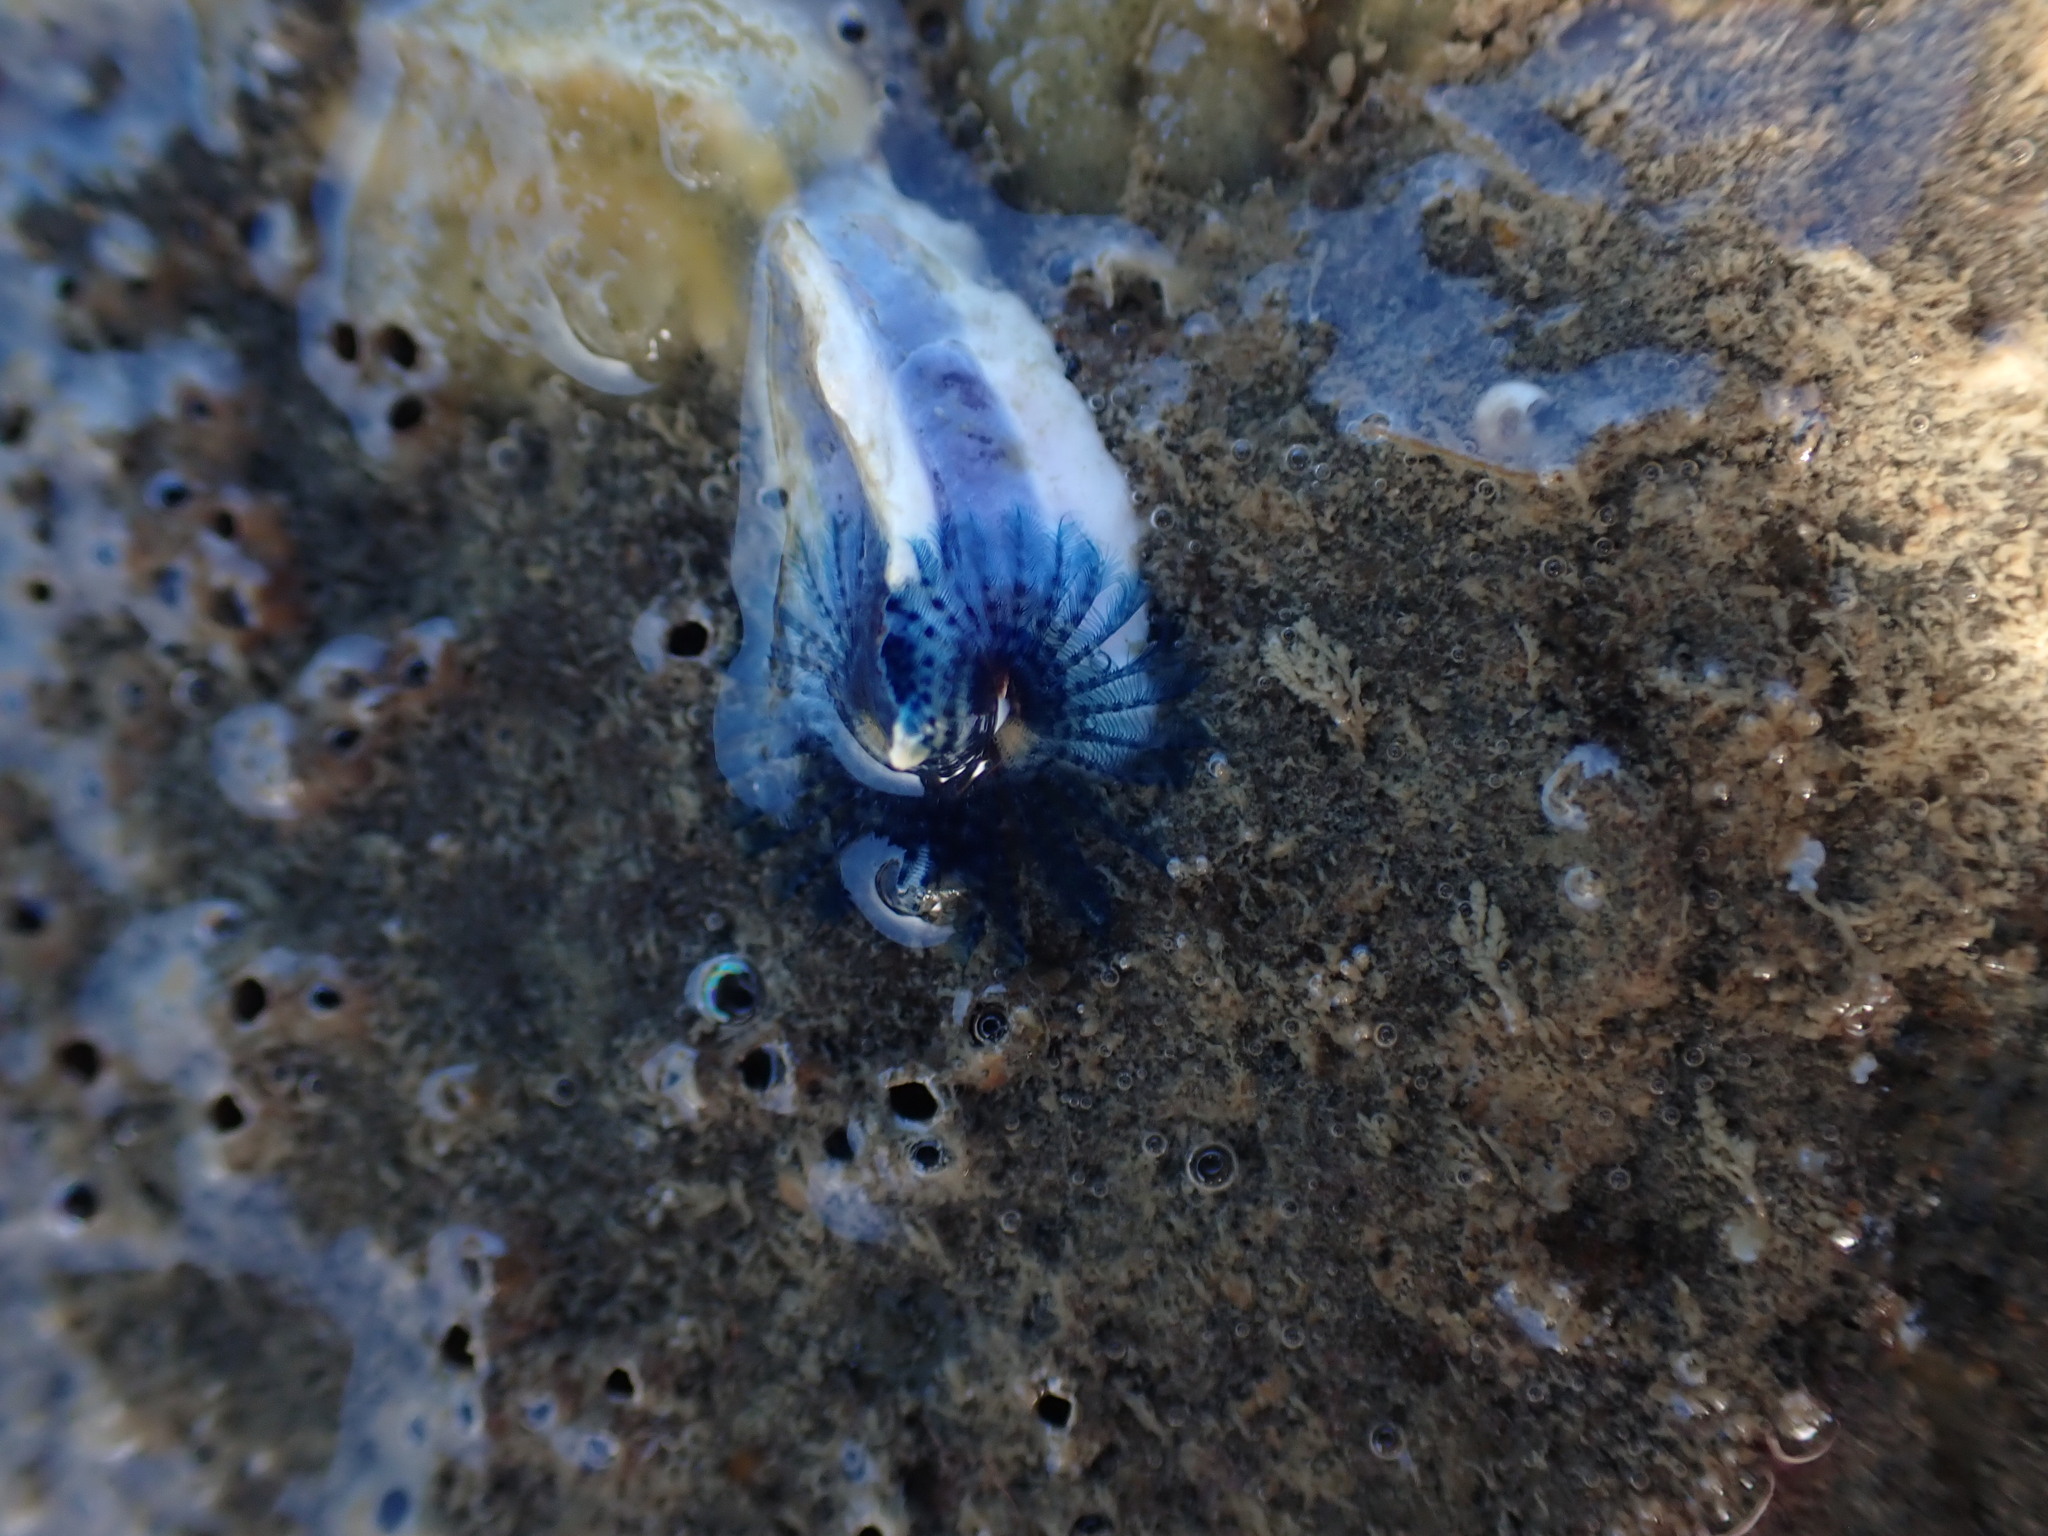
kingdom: Animalia
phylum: Annelida
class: Polychaeta
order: Sabellida
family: Serpulidae
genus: Spirobranchus
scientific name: Spirobranchus cariniferus
